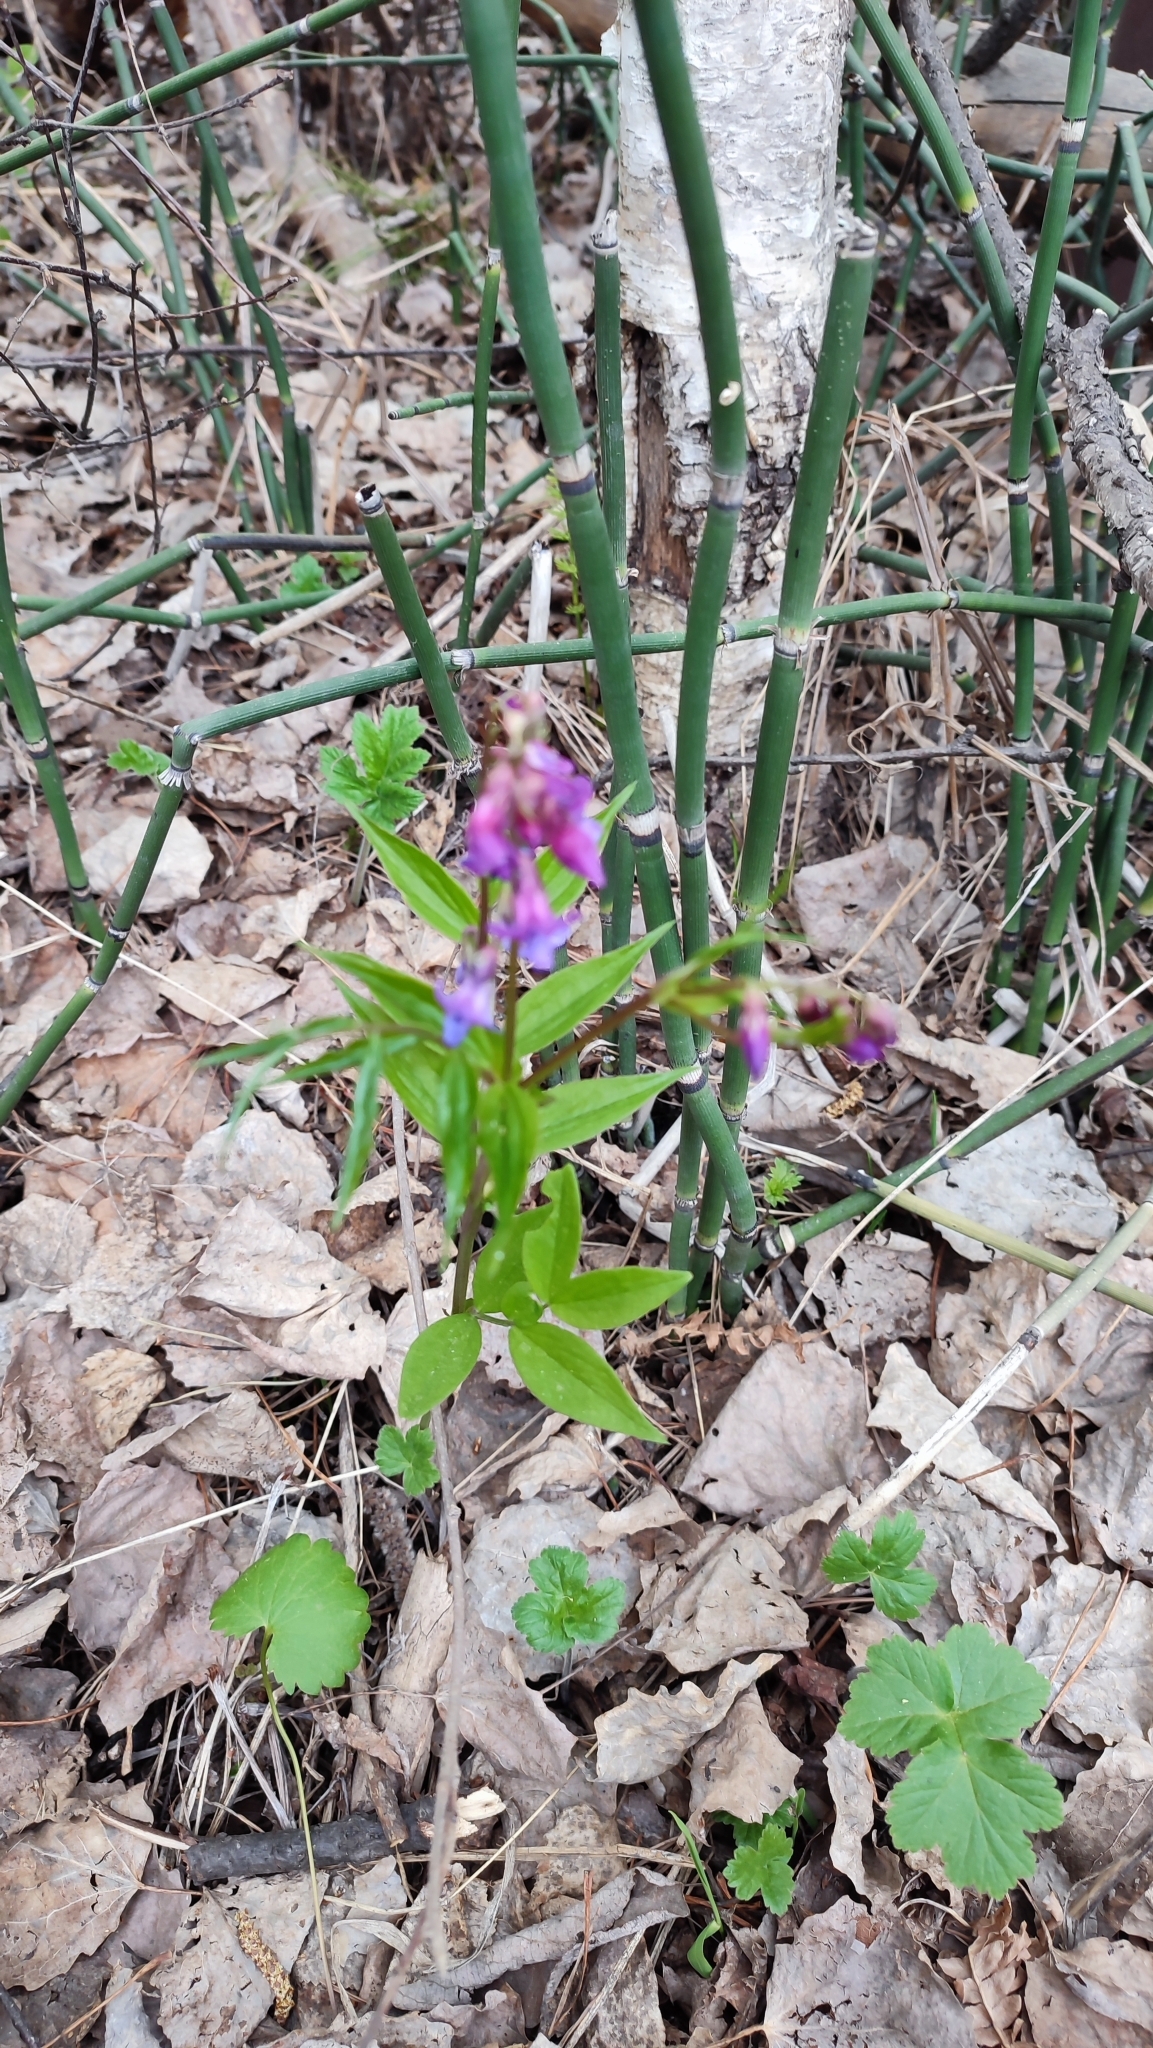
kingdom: Plantae
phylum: Tracheophyta
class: Magnoliopsida
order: Fabales
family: Fabaceae
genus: Lathyrus
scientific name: Lathyrus vernus
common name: Spring pea
